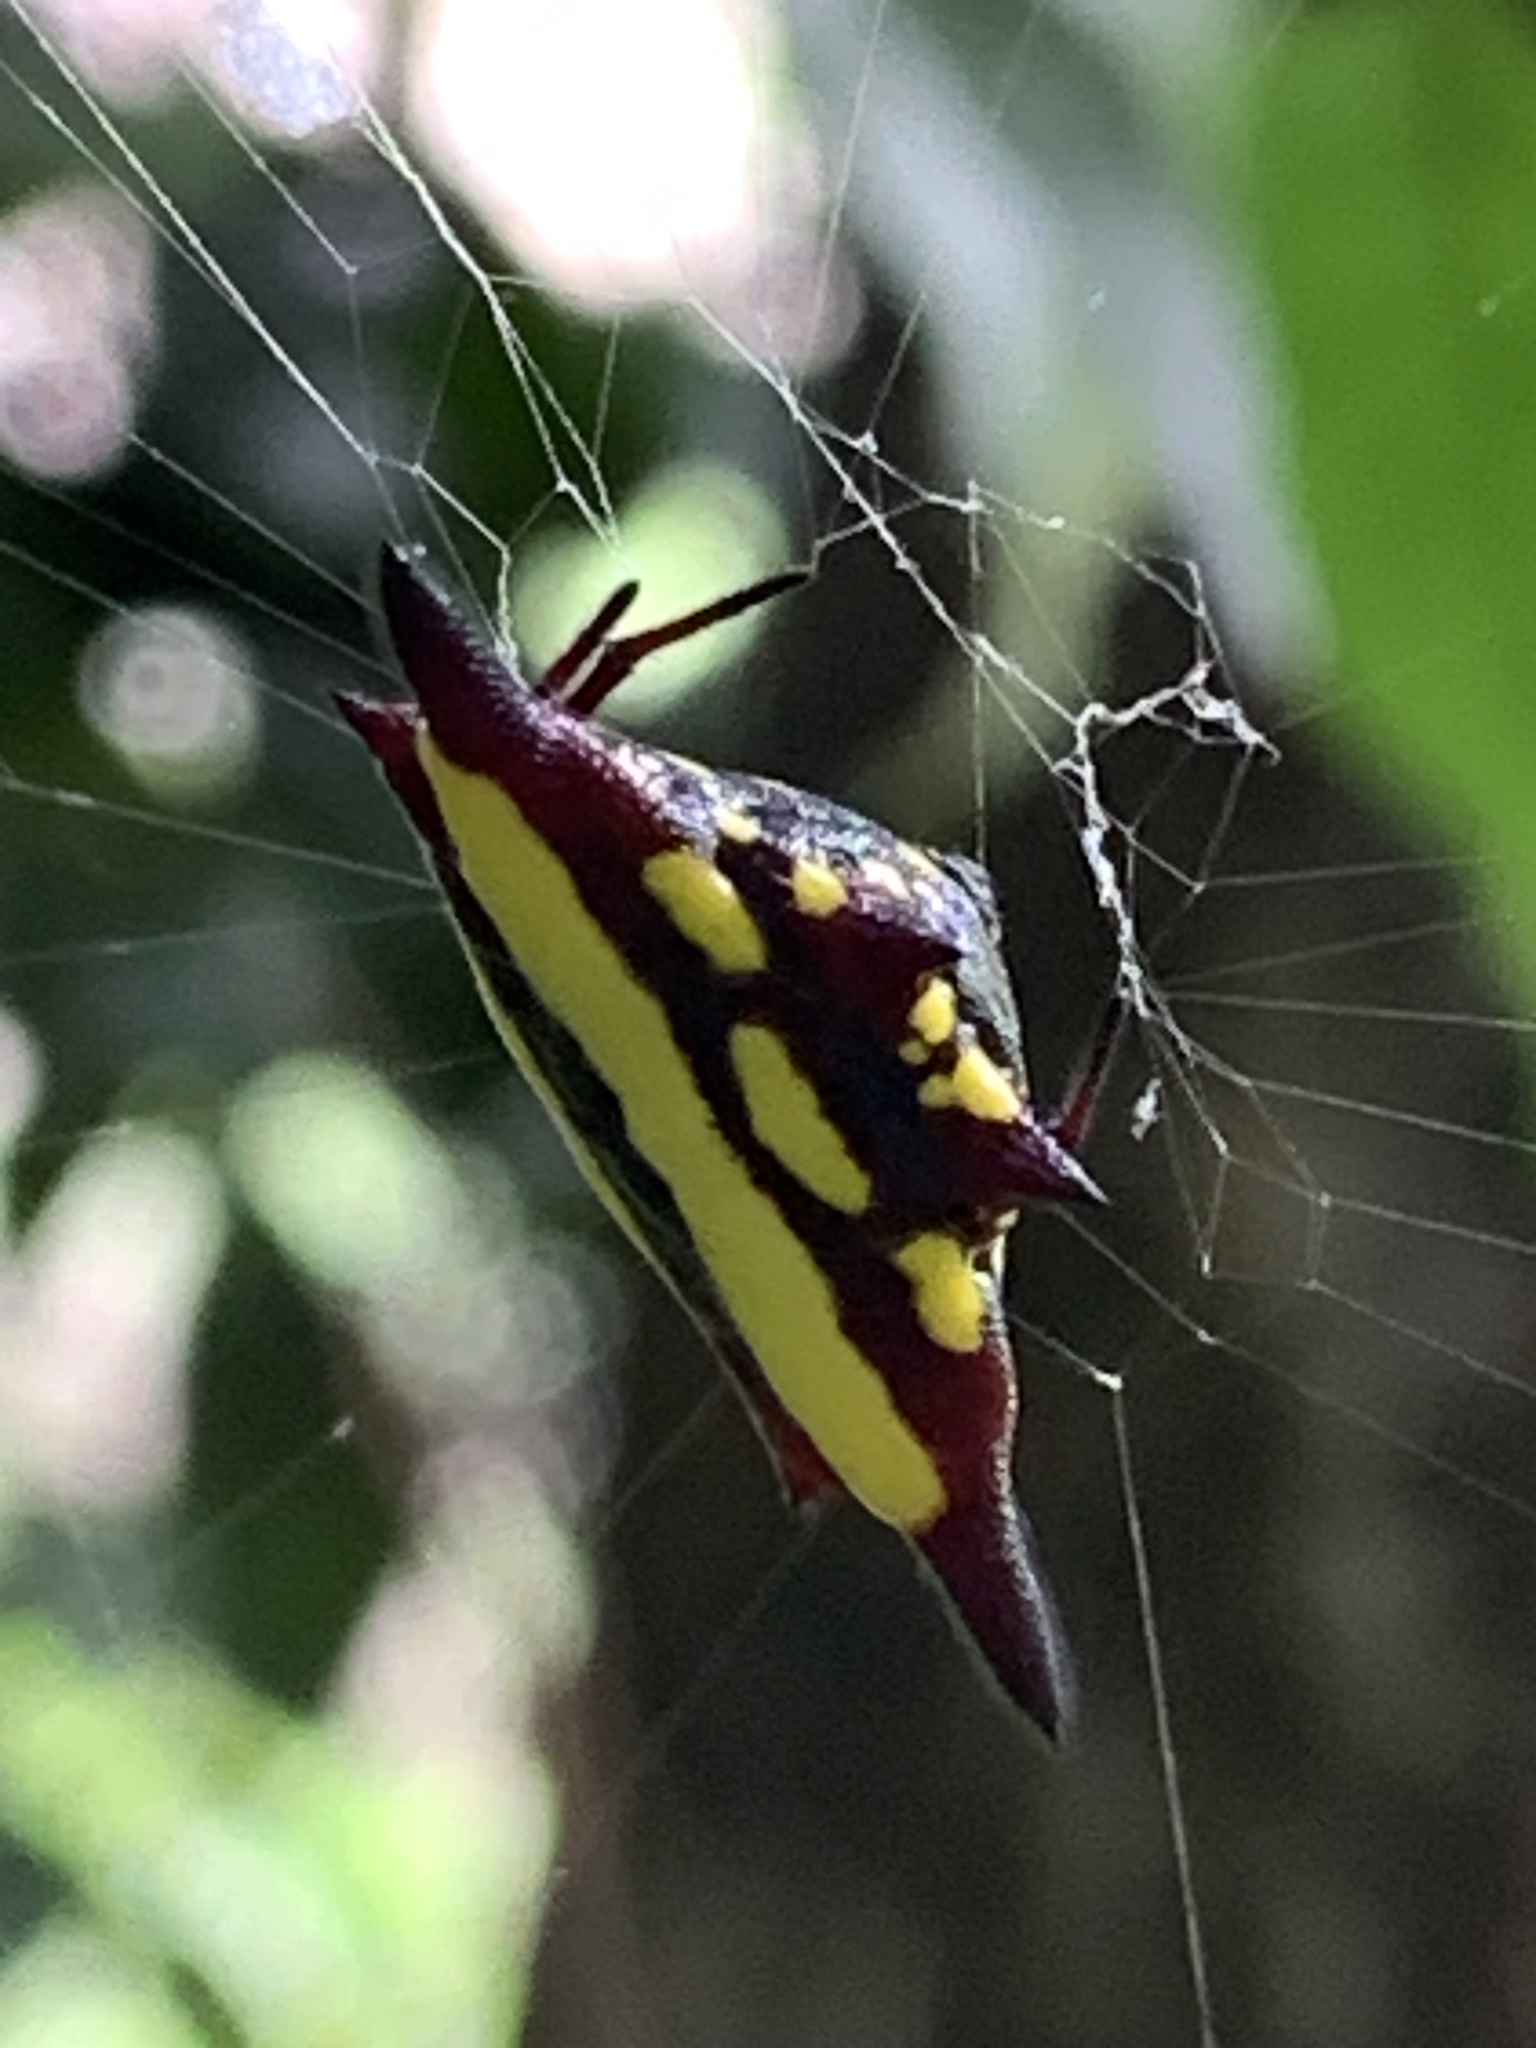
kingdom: Animalia
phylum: Arthropoda
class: Arachnida
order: Araneae
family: Araneidae
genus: Gasteracantha
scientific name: Gasteracantha fornicata
